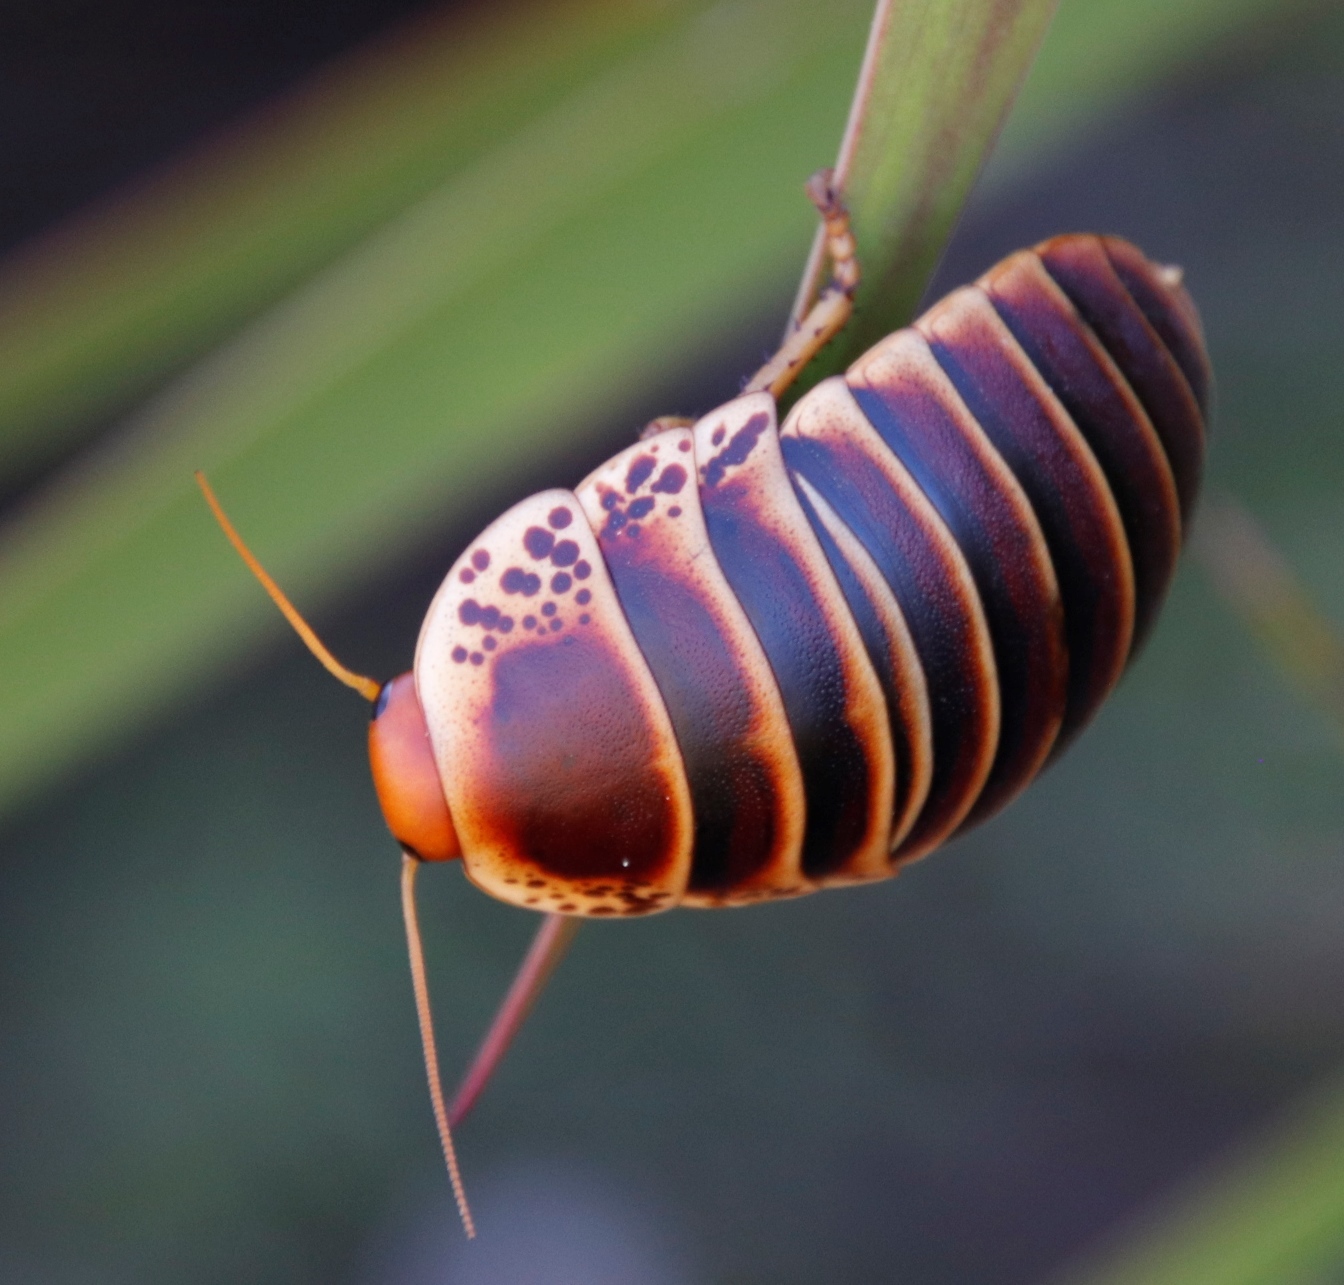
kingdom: Animalia
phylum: Arthropoda
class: Insecta
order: Blattodea
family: Blaberidae
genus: Aptera
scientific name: Aptera fusca
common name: Cape mountain cockroach
